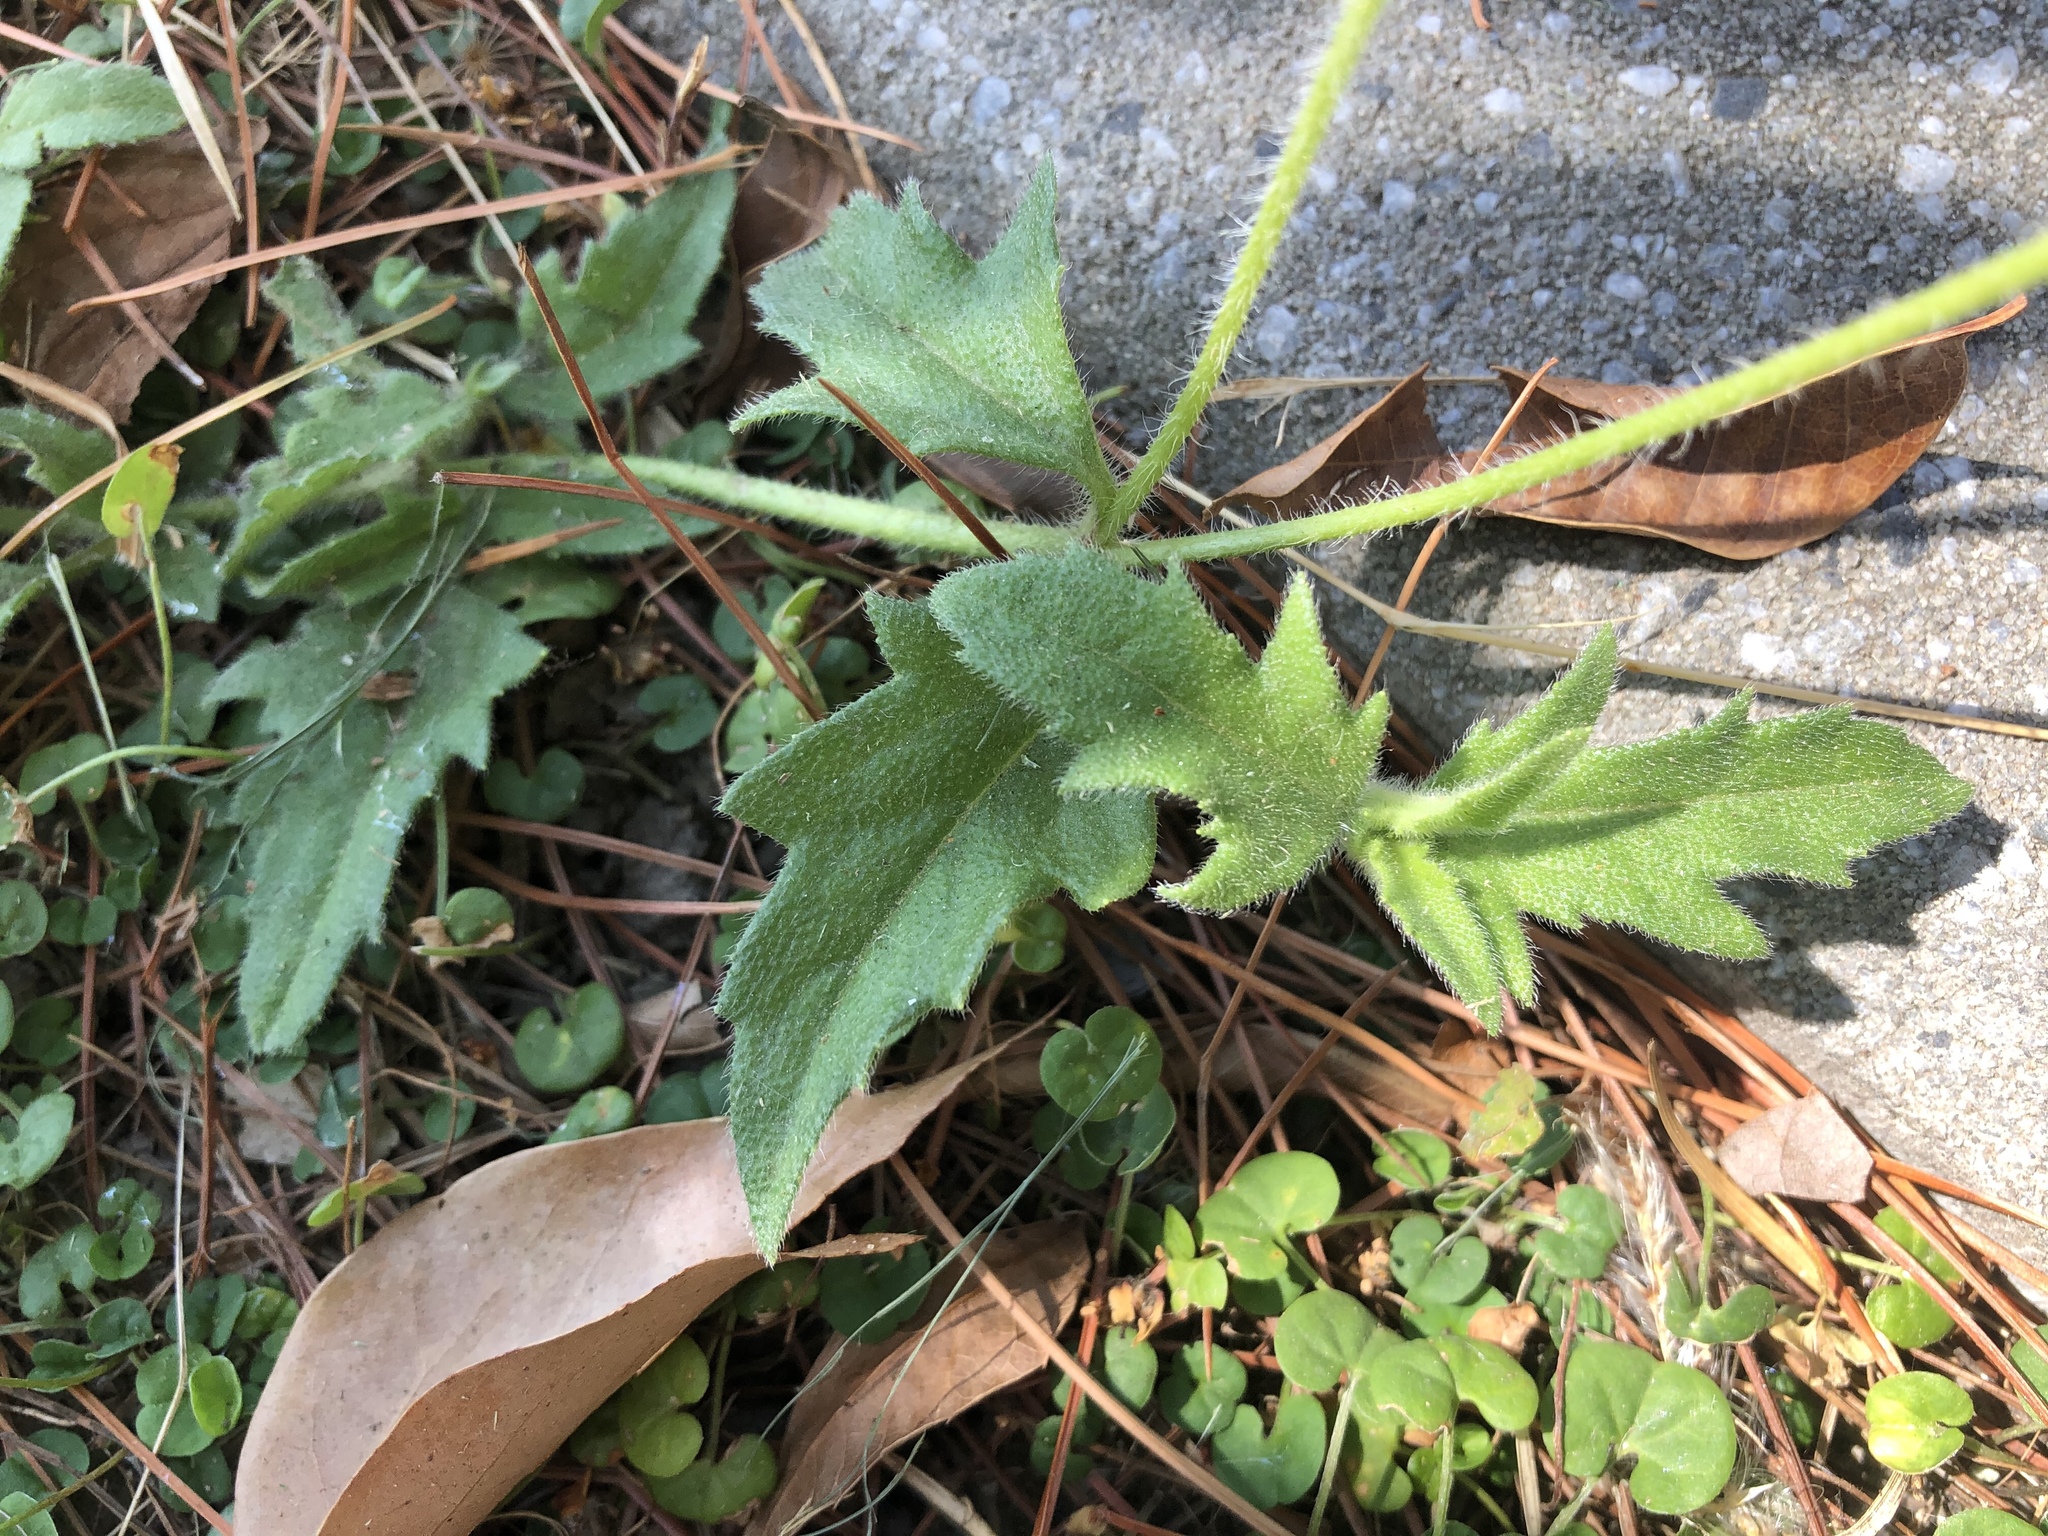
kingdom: Plantae
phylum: Tracheophyta
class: Magnoliopsida
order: Asterales
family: Asteraceae
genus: Tridax
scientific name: Tridax procumbens
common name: Coatbuttons
